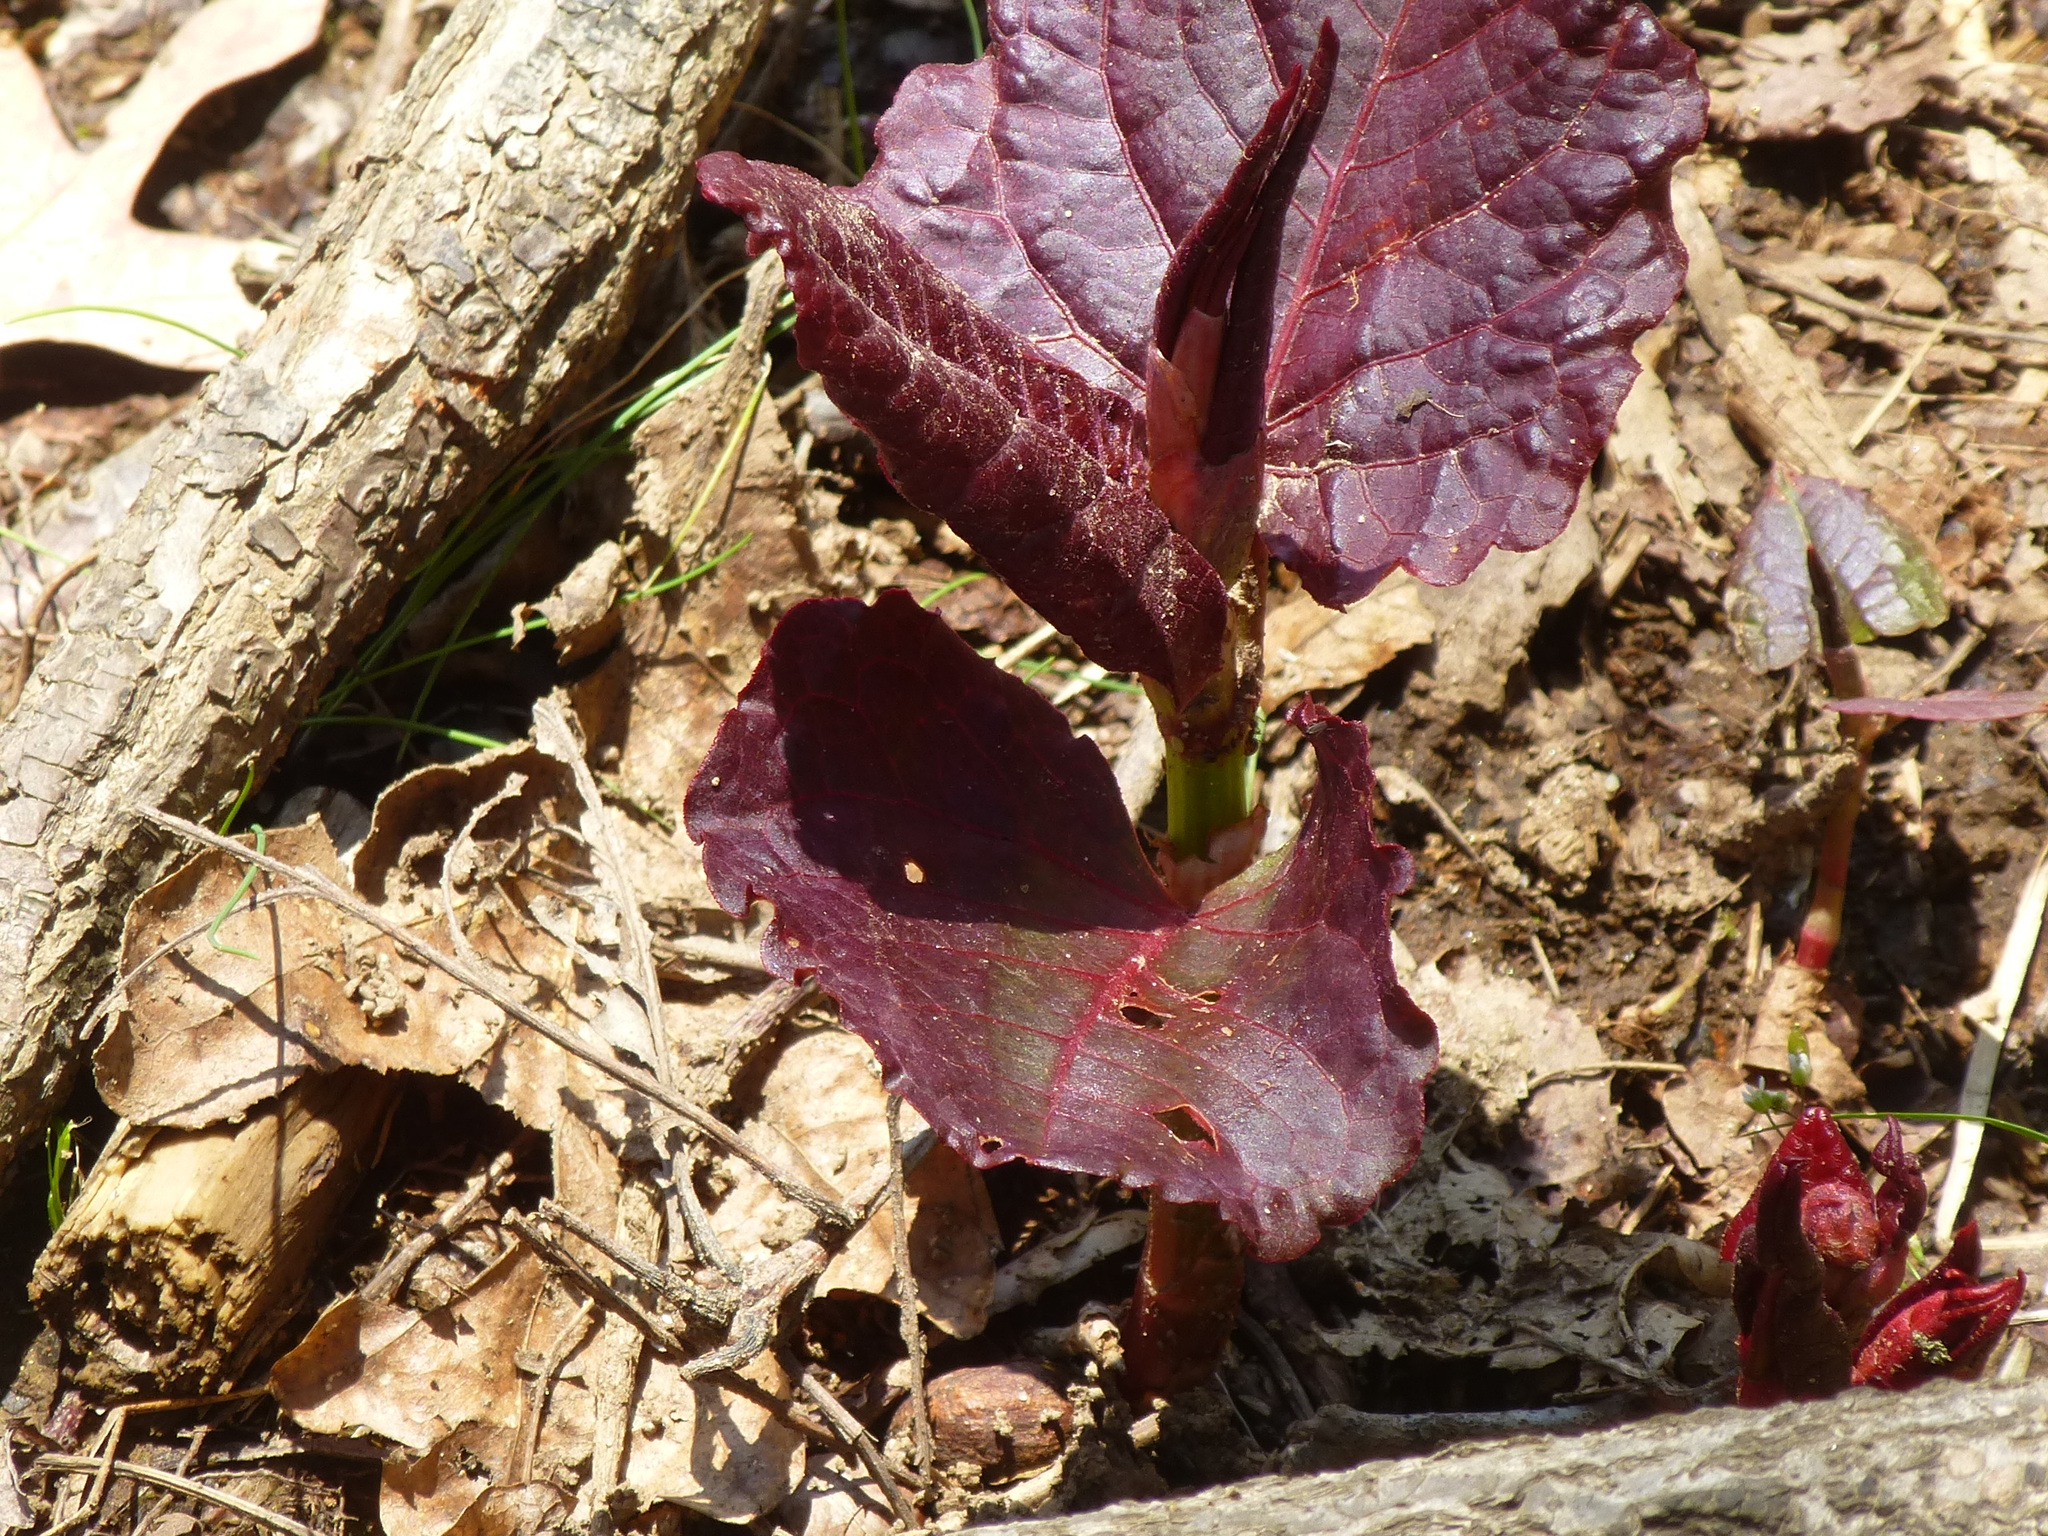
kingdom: Plantae
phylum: Tracheophyta
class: Magnoliopsida
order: Caryophyllales
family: Polygonaceae
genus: Reynoutria
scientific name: Reynoutria japonica
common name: Japanese knotweed
